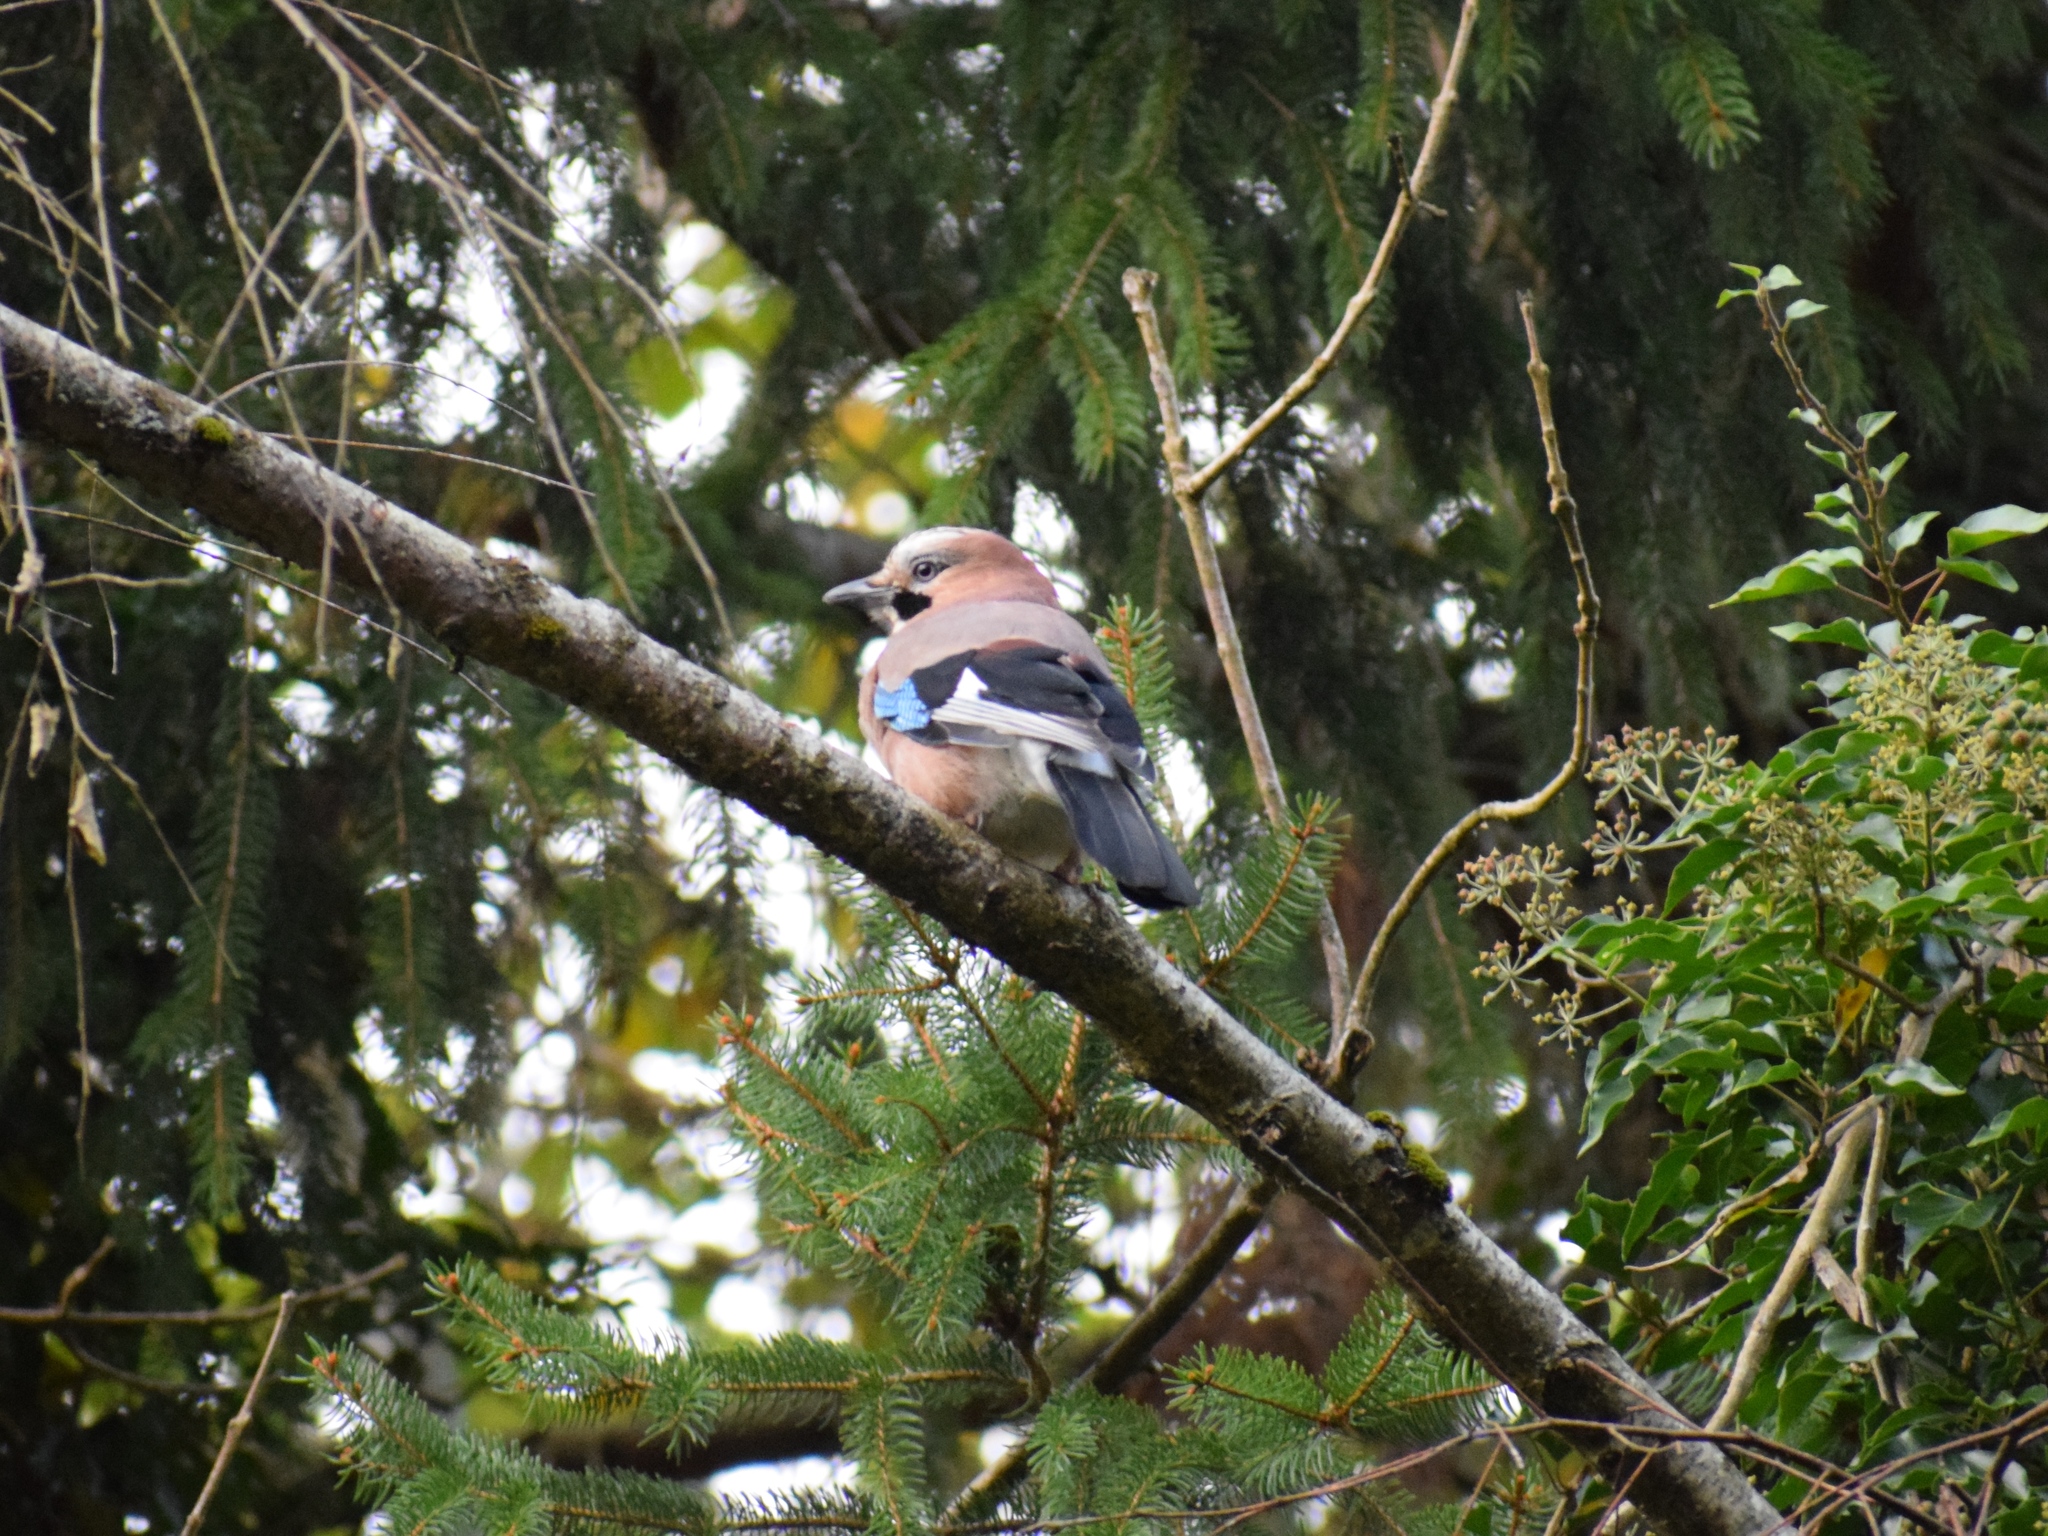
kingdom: Animalia
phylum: Chordata
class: Aves
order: Passeriformes
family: Corvidae
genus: Garrulus
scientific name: Garrulus glandarius
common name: Eurasian jay
